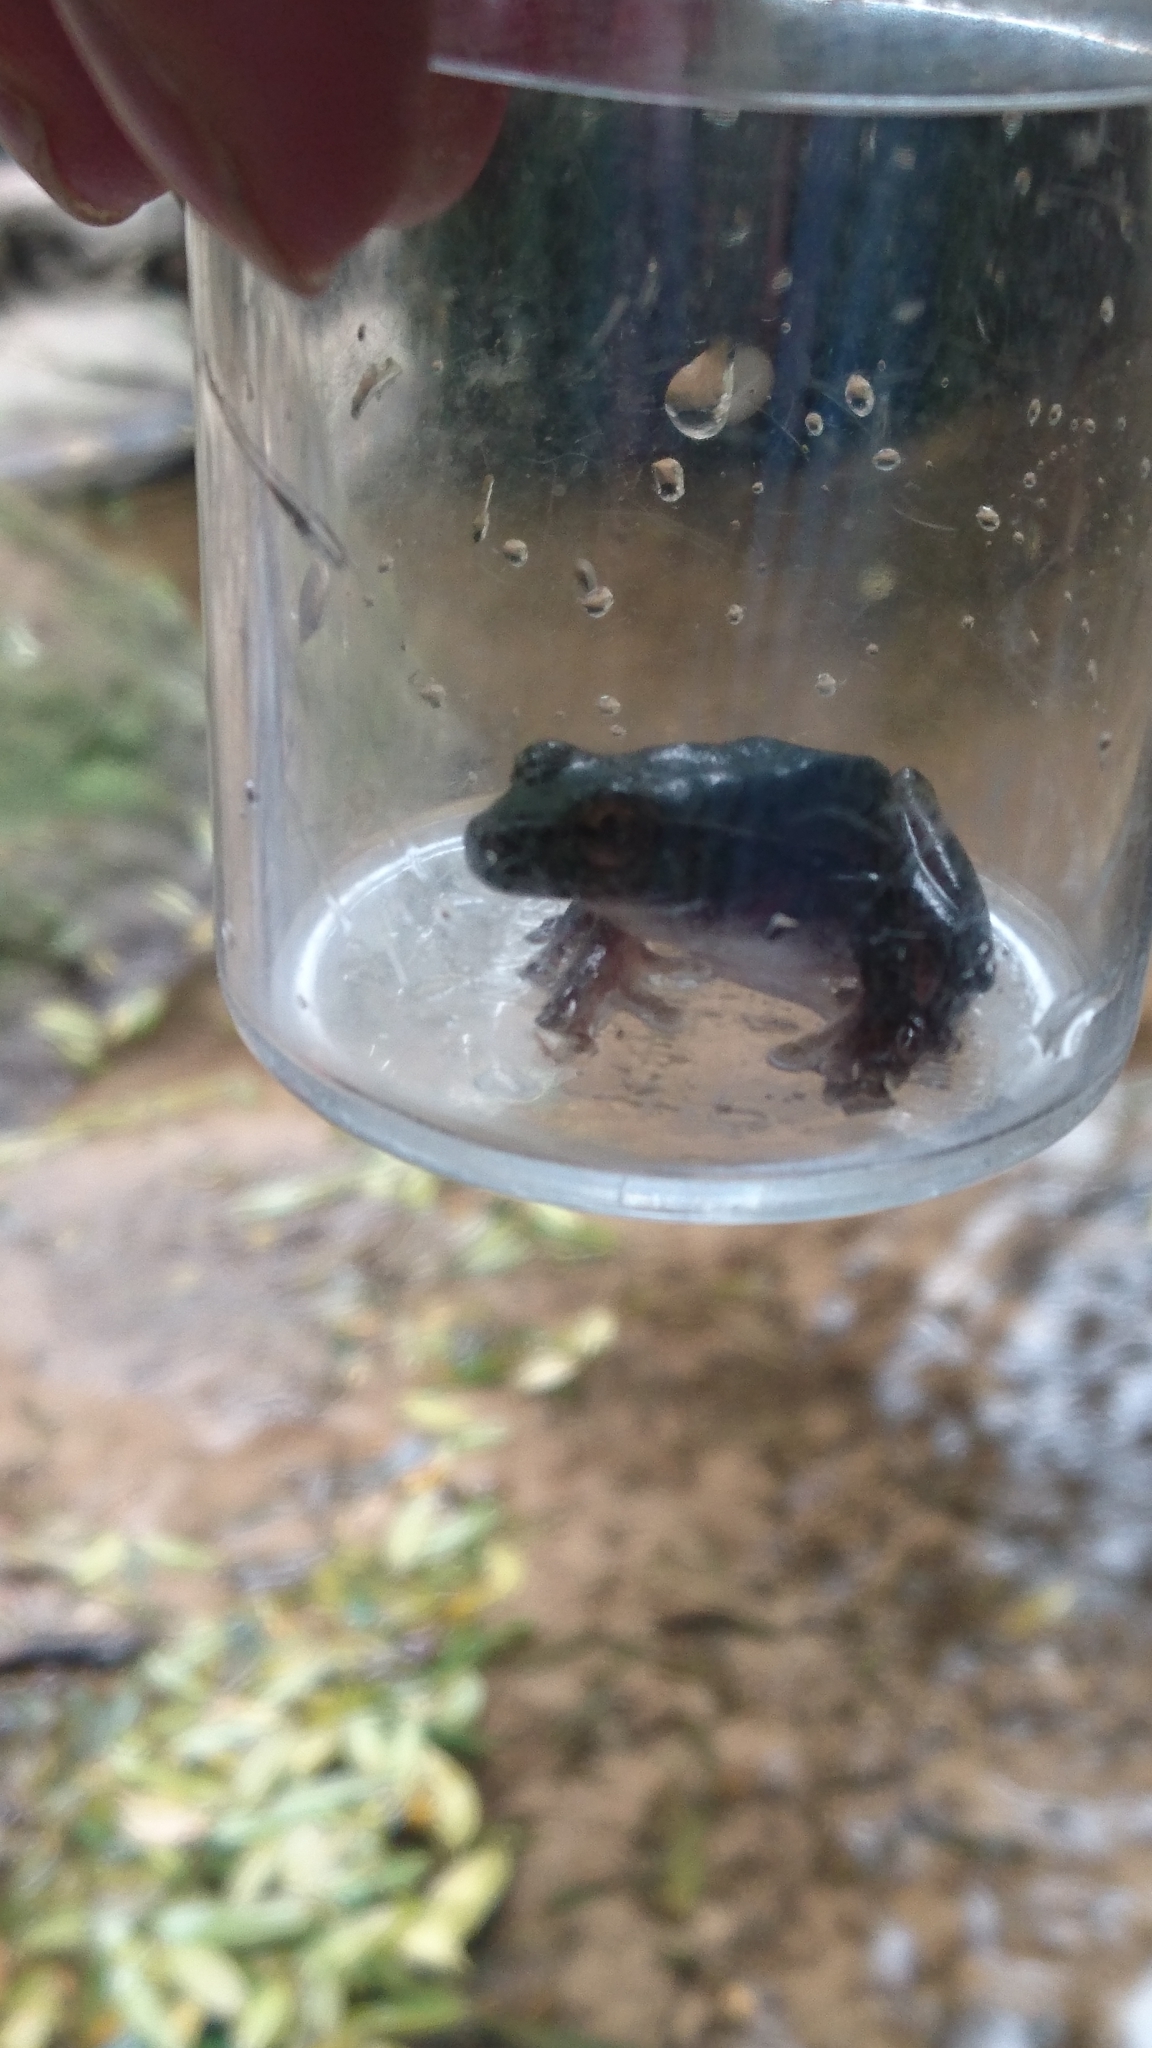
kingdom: Animalia
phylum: Chordata
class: Amphibia
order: Anura
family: Pelodryadidae
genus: Ranoidea
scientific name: Ranoidea phyllochroa
